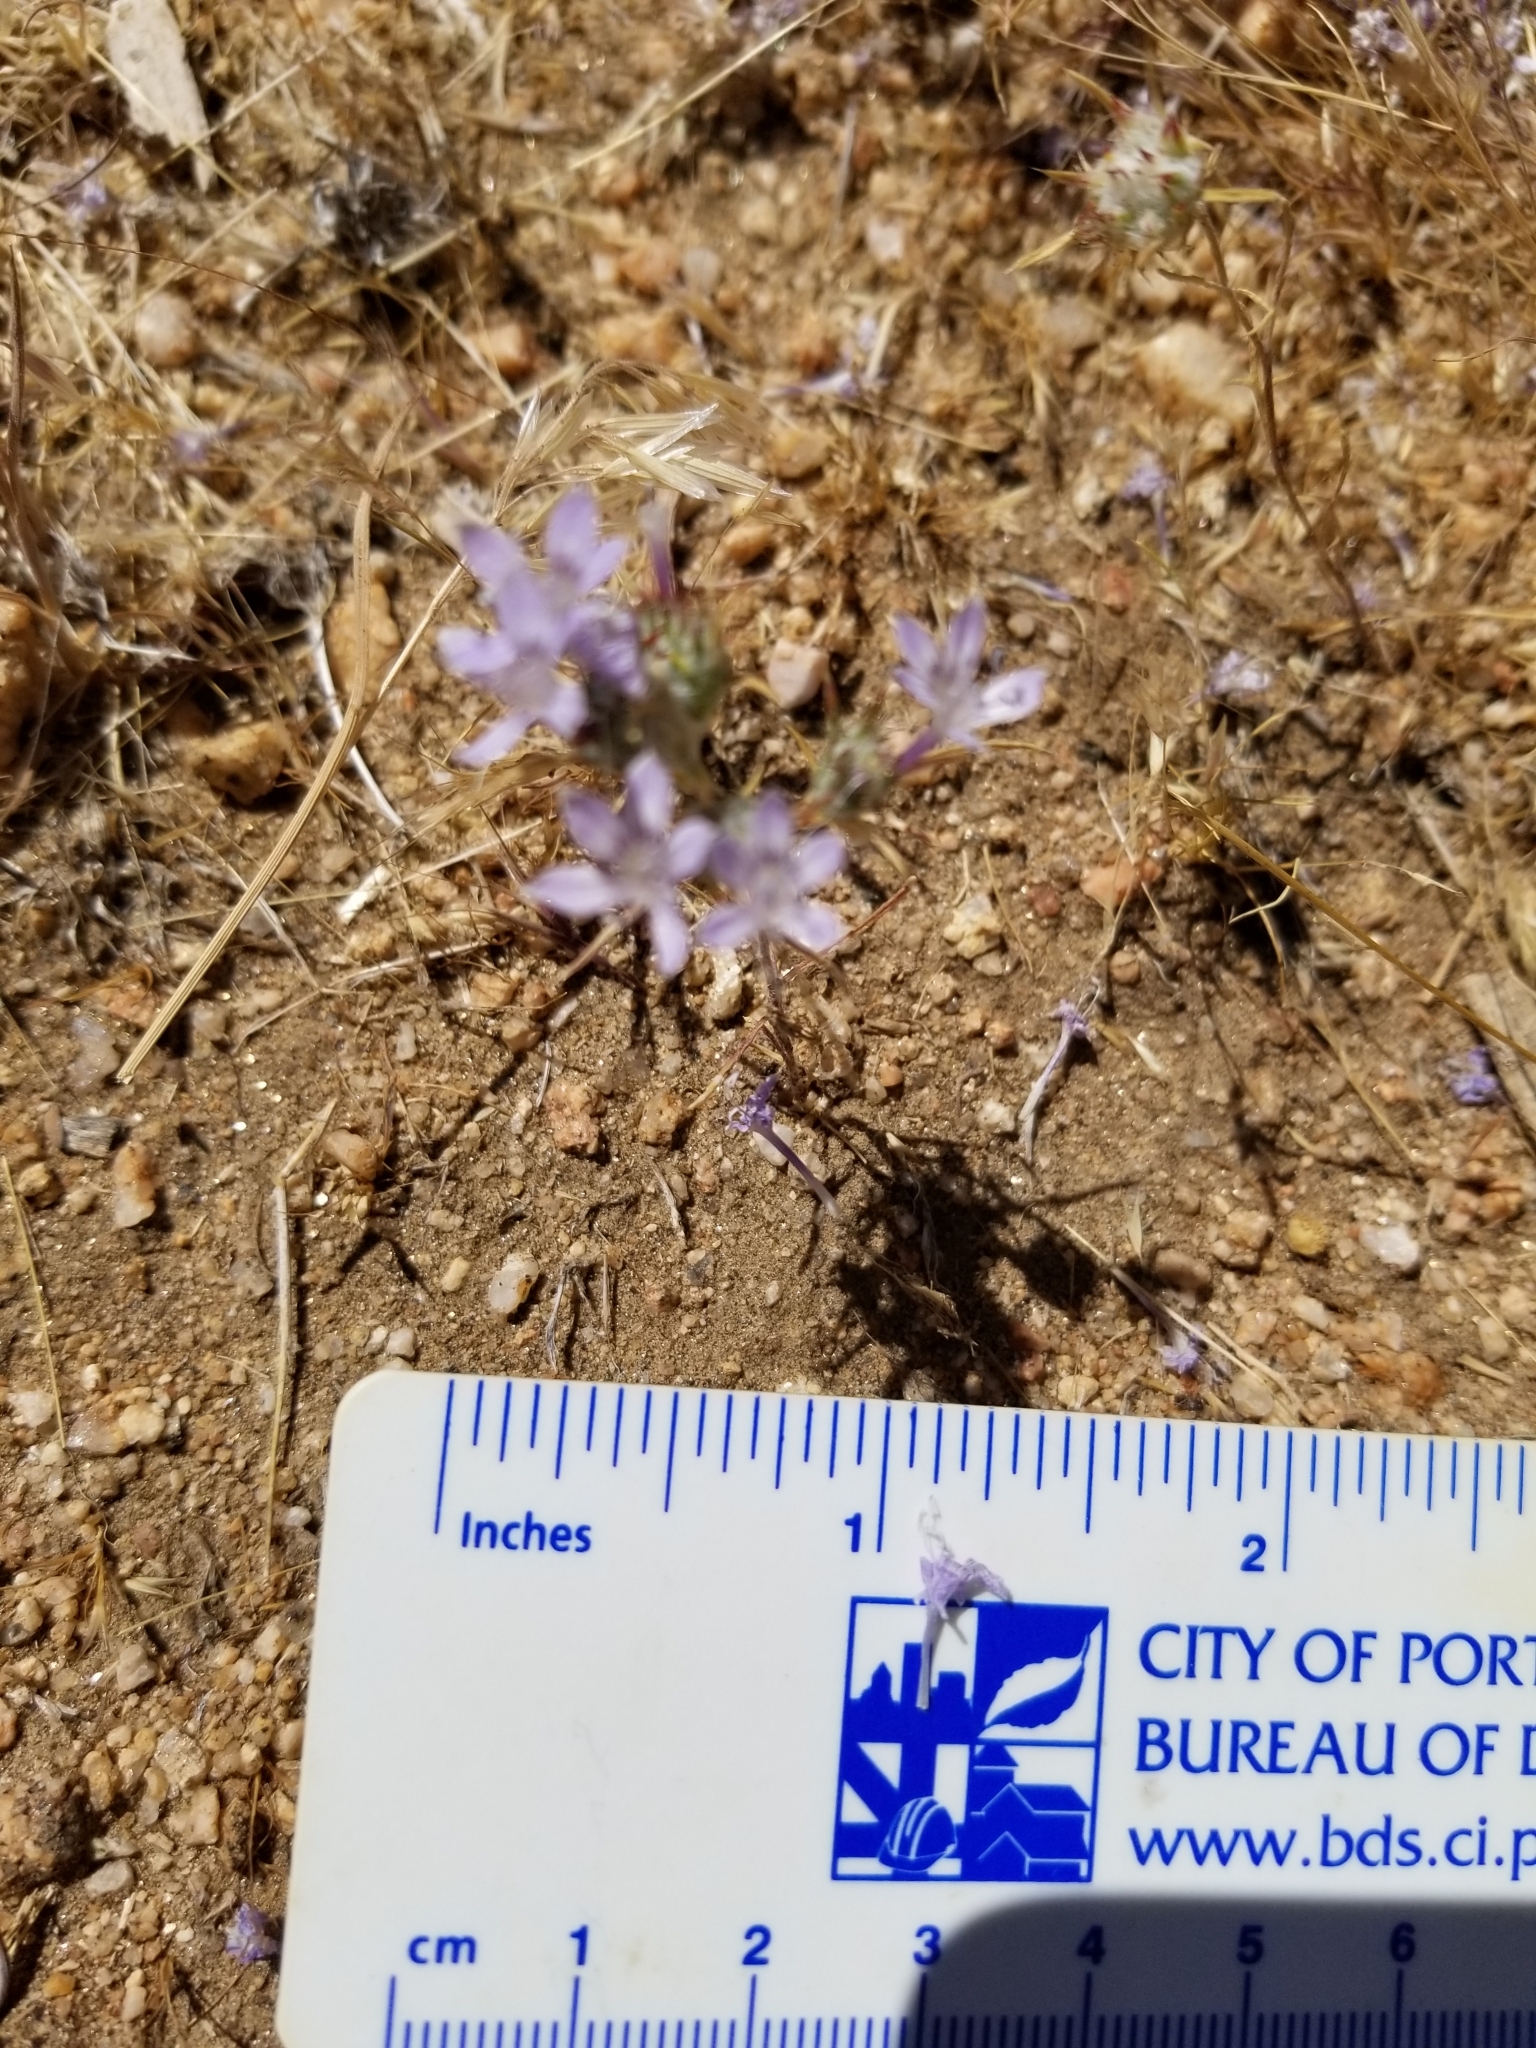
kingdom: Plantae
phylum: Tracheophyta
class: Magnoliopsida
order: Ericales
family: Polemoniaceae
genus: Eriastrum
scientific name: Eriastrum eremicum
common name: Desert eriastrum
